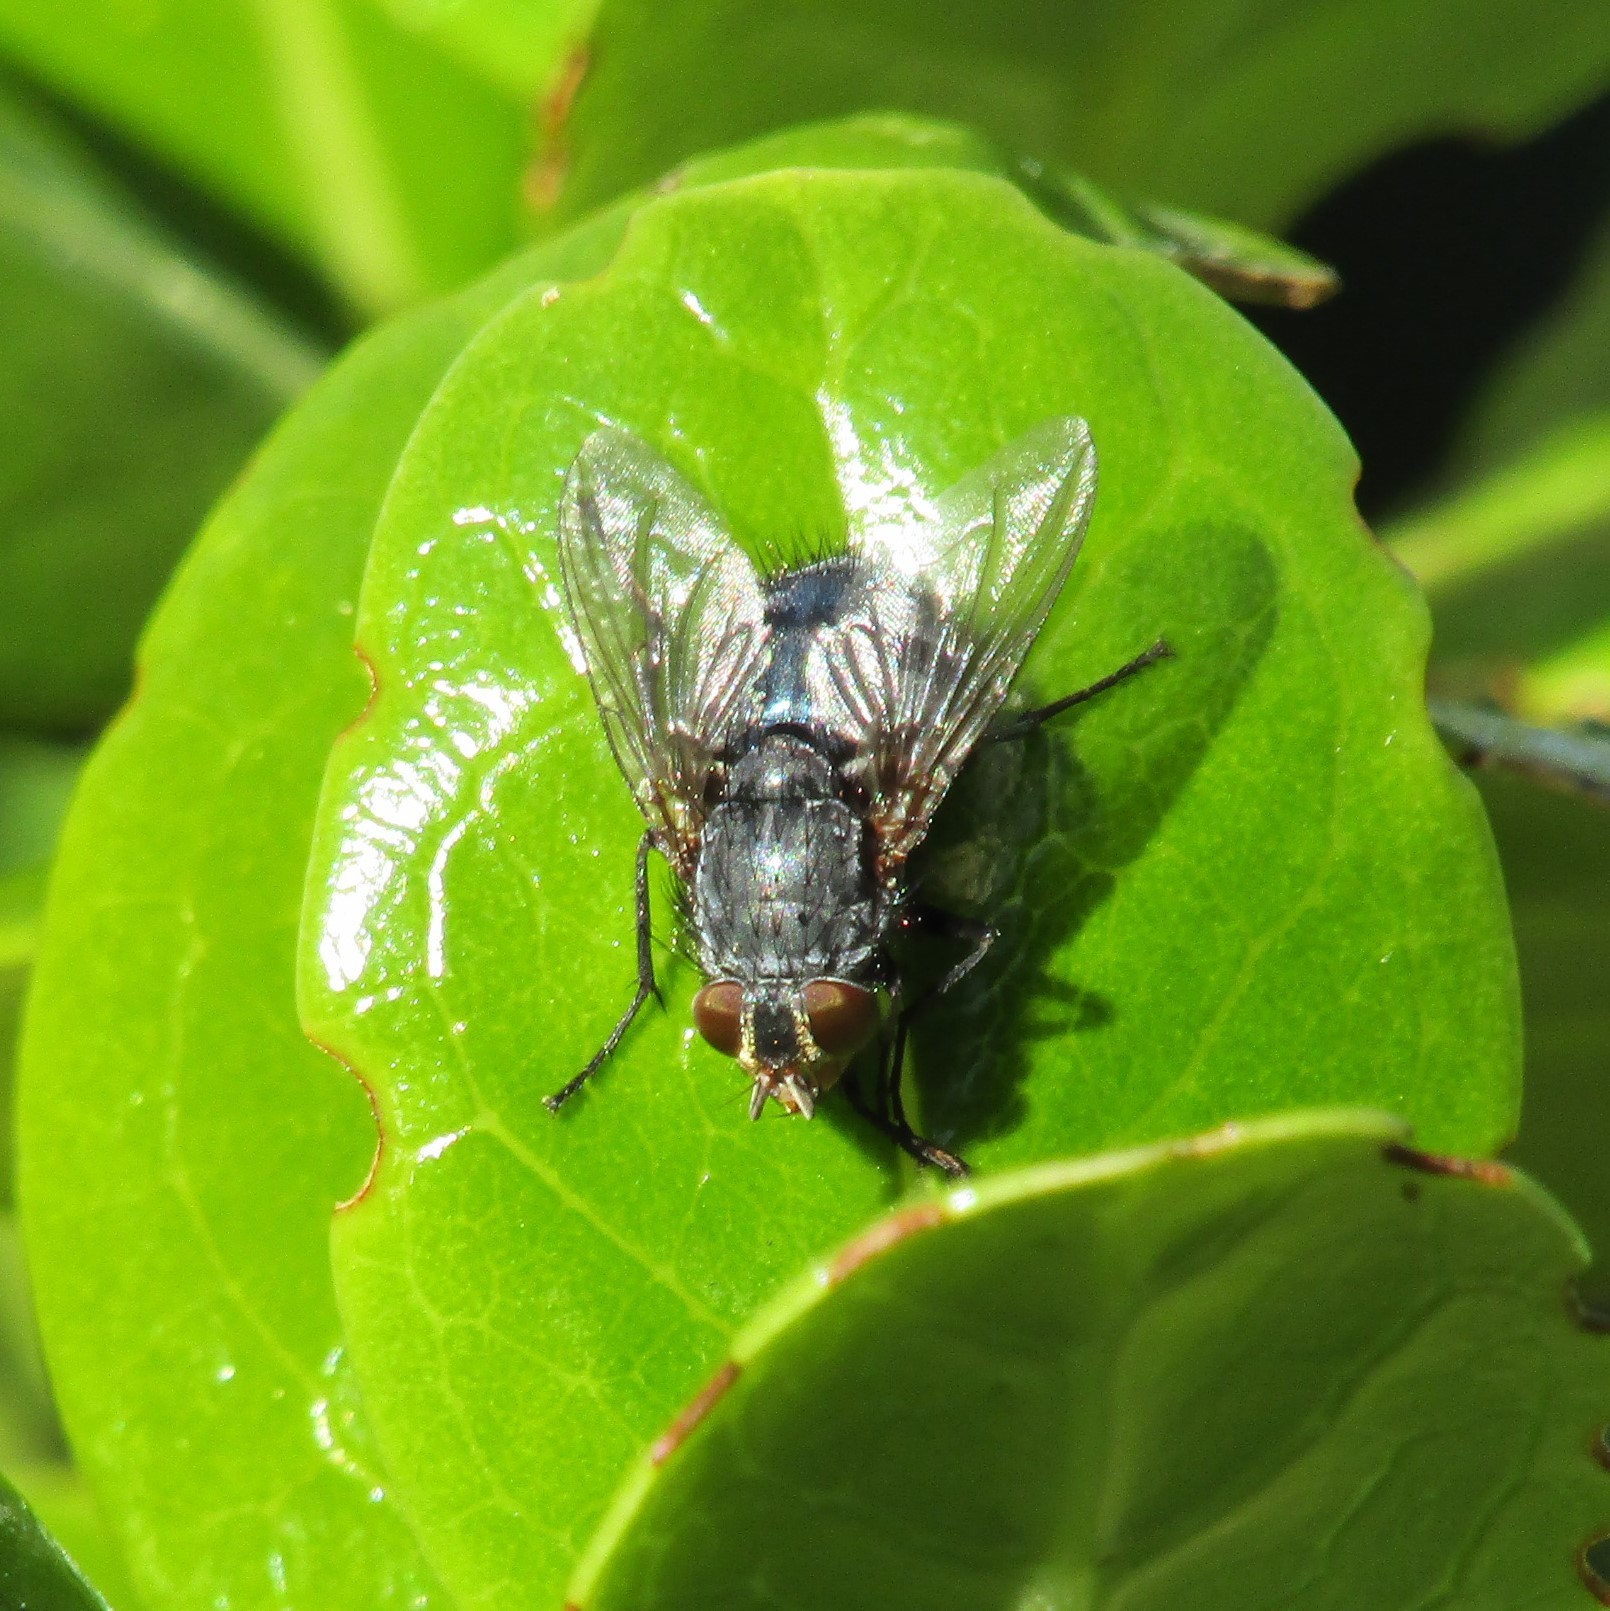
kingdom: Animalia
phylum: Arthropoda
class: Insecta
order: Diptera
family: Calliphoridae
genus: Calliphora
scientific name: Calliphora vicina
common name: Common blow flie
